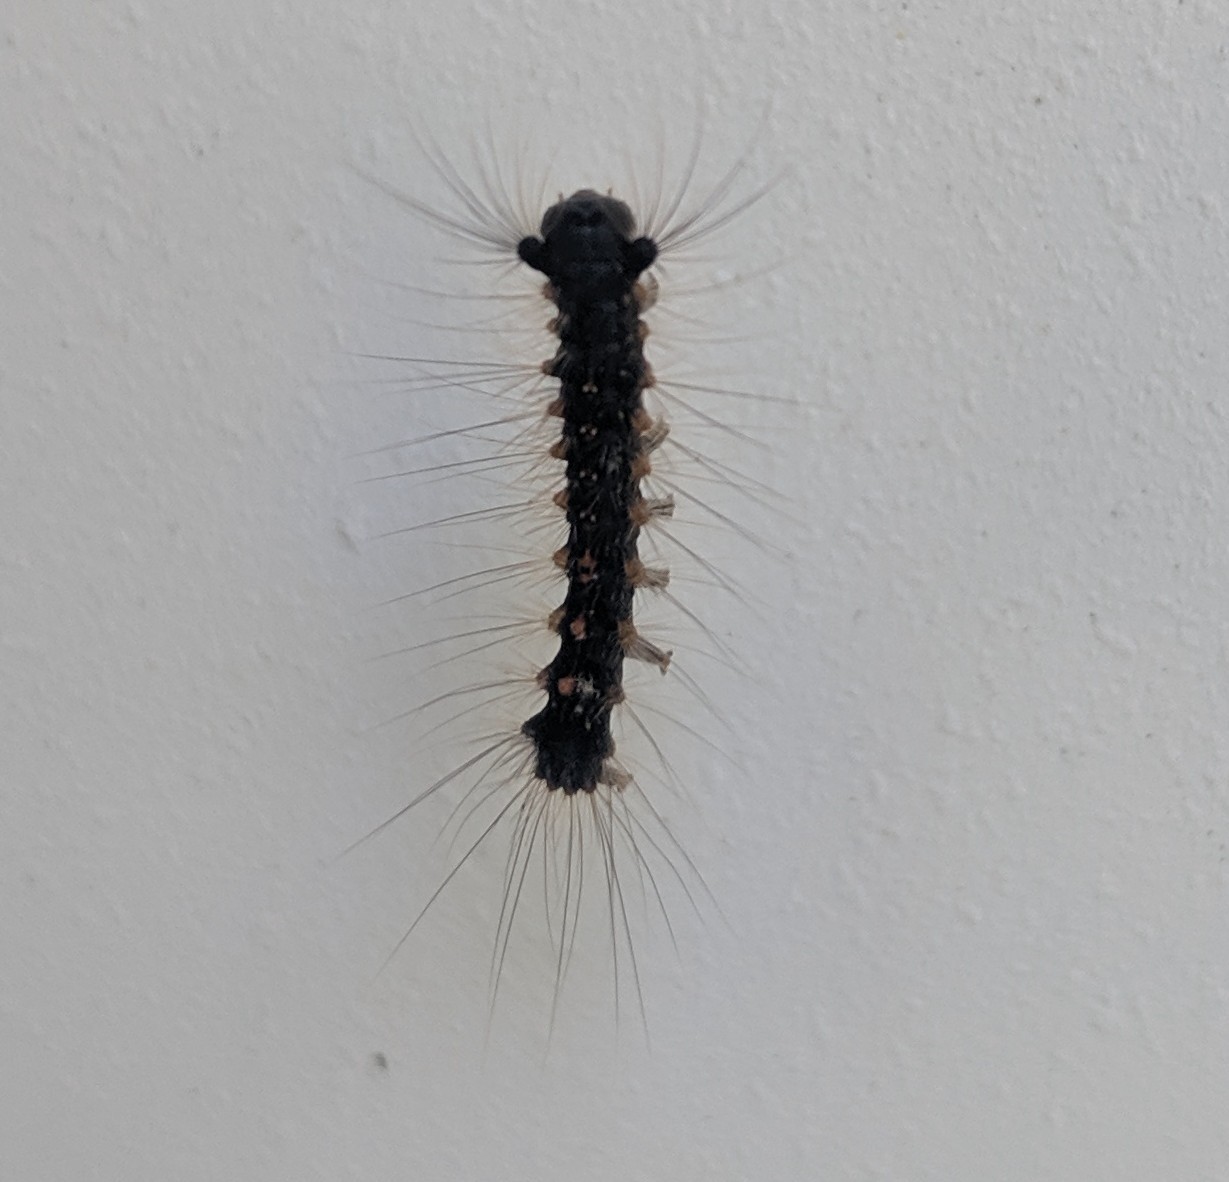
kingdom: Animalia
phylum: Arthropoda
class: Insecta
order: Lepidoptera
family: Erebidae
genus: Lymantria
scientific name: Lymantria dispar
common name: Gypsy moth
